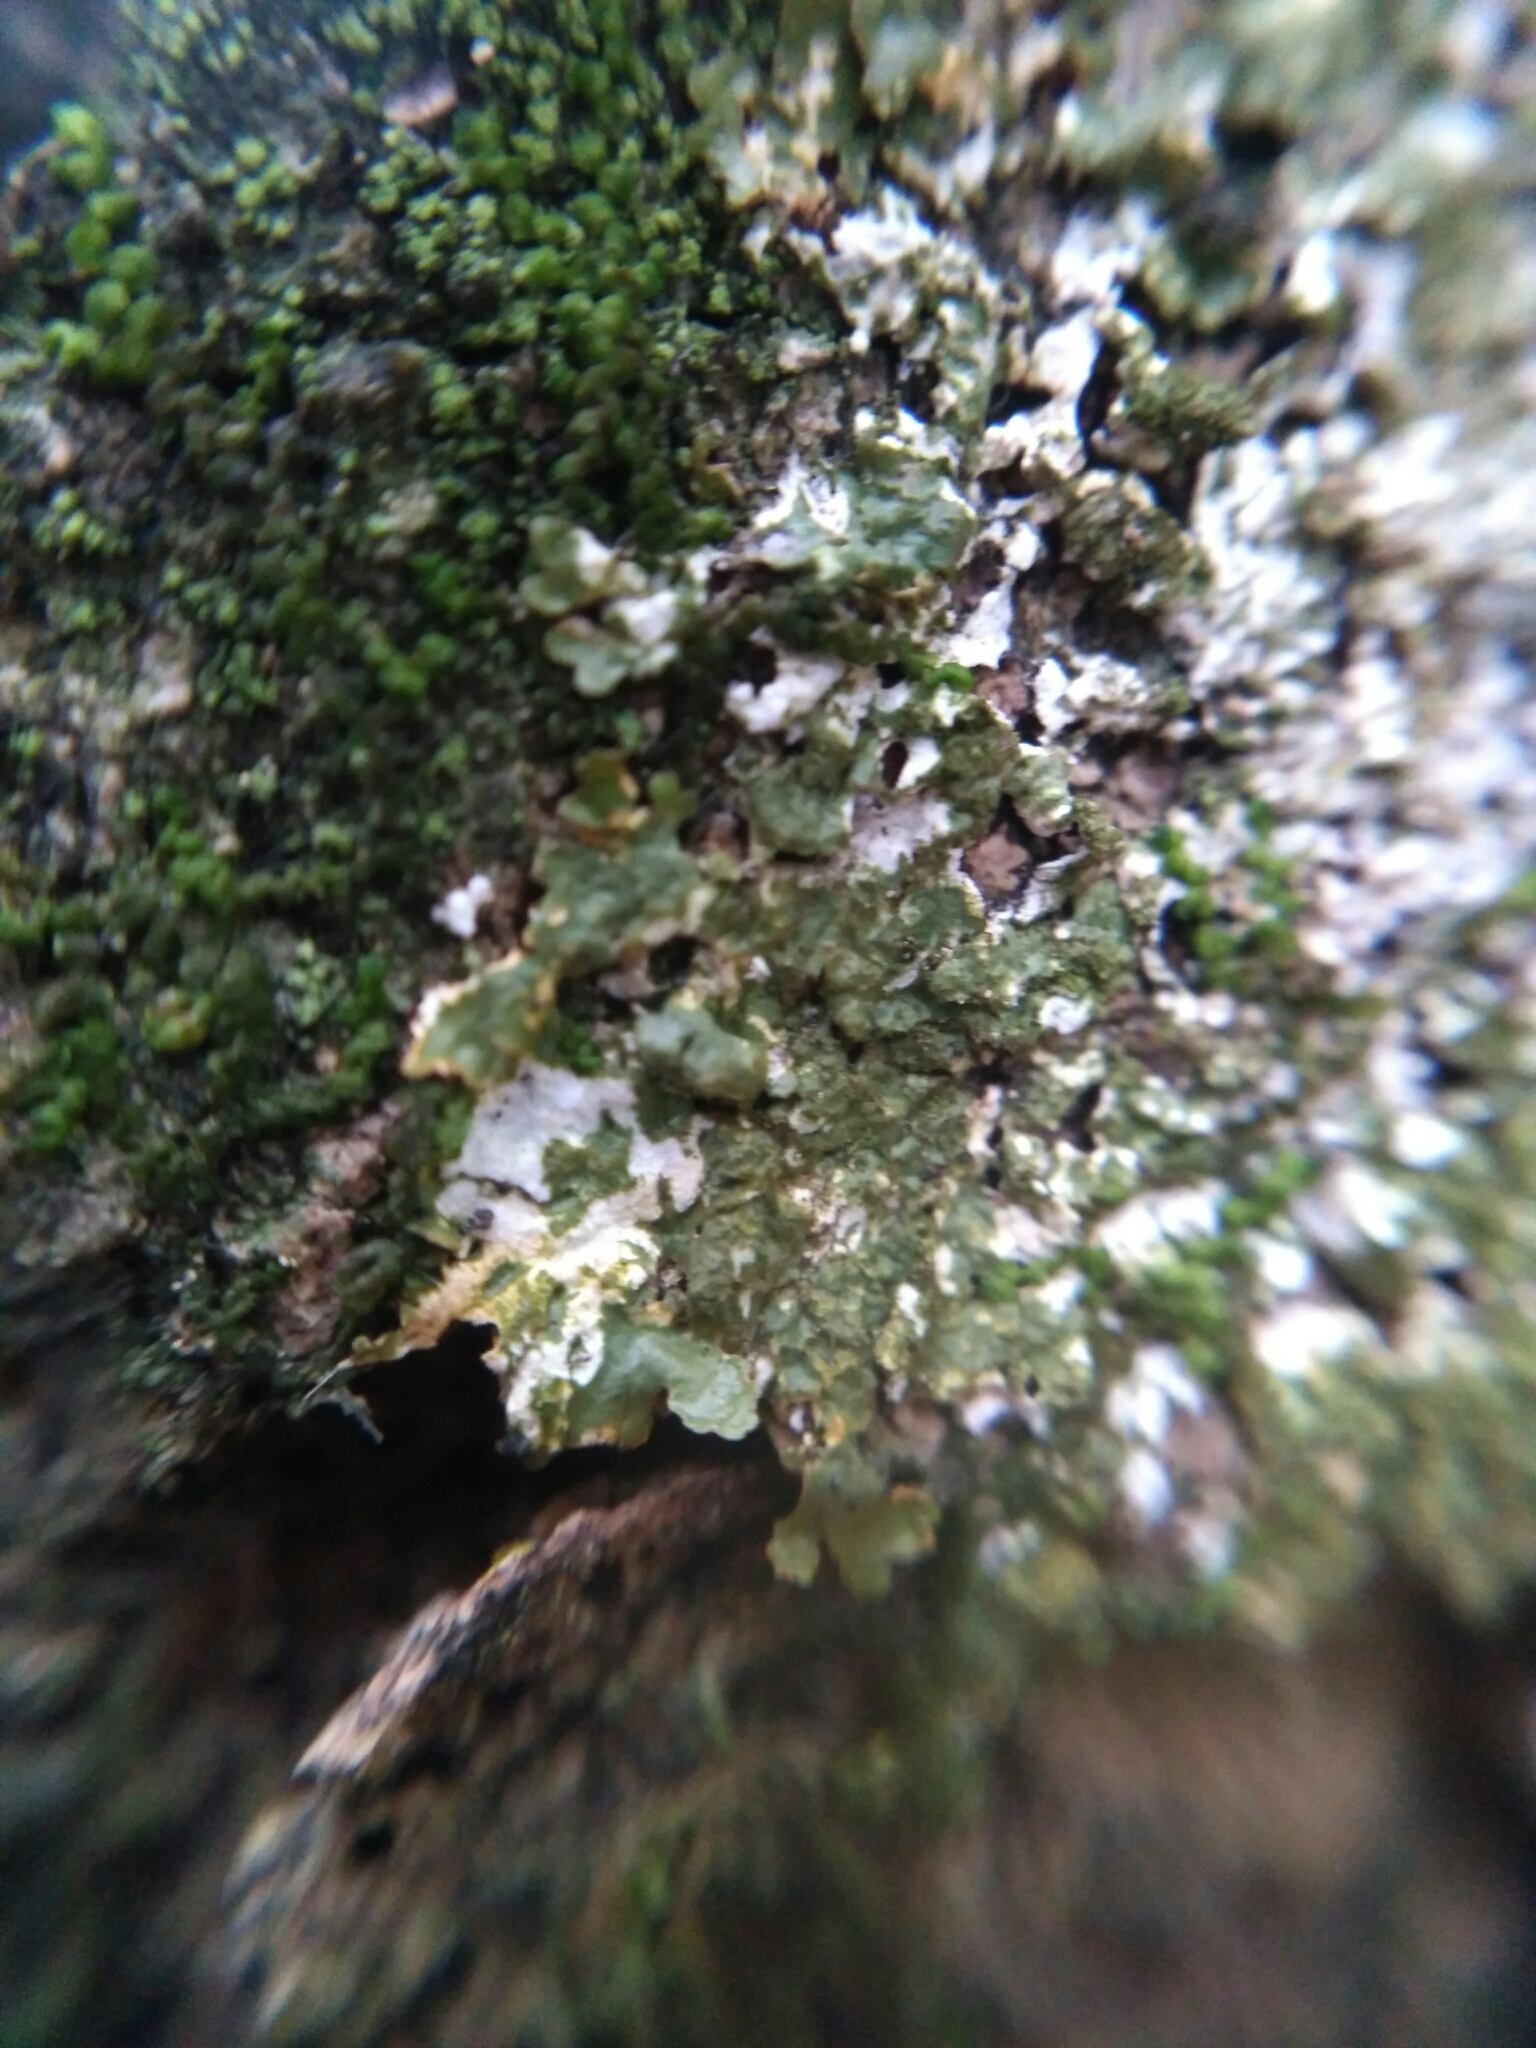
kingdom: Fungi
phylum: Ascomycota
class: Lecanoromycetes
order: Lecanorales
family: Parmeliaceae
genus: Melanelixia
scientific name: Melanelixia glabratula
